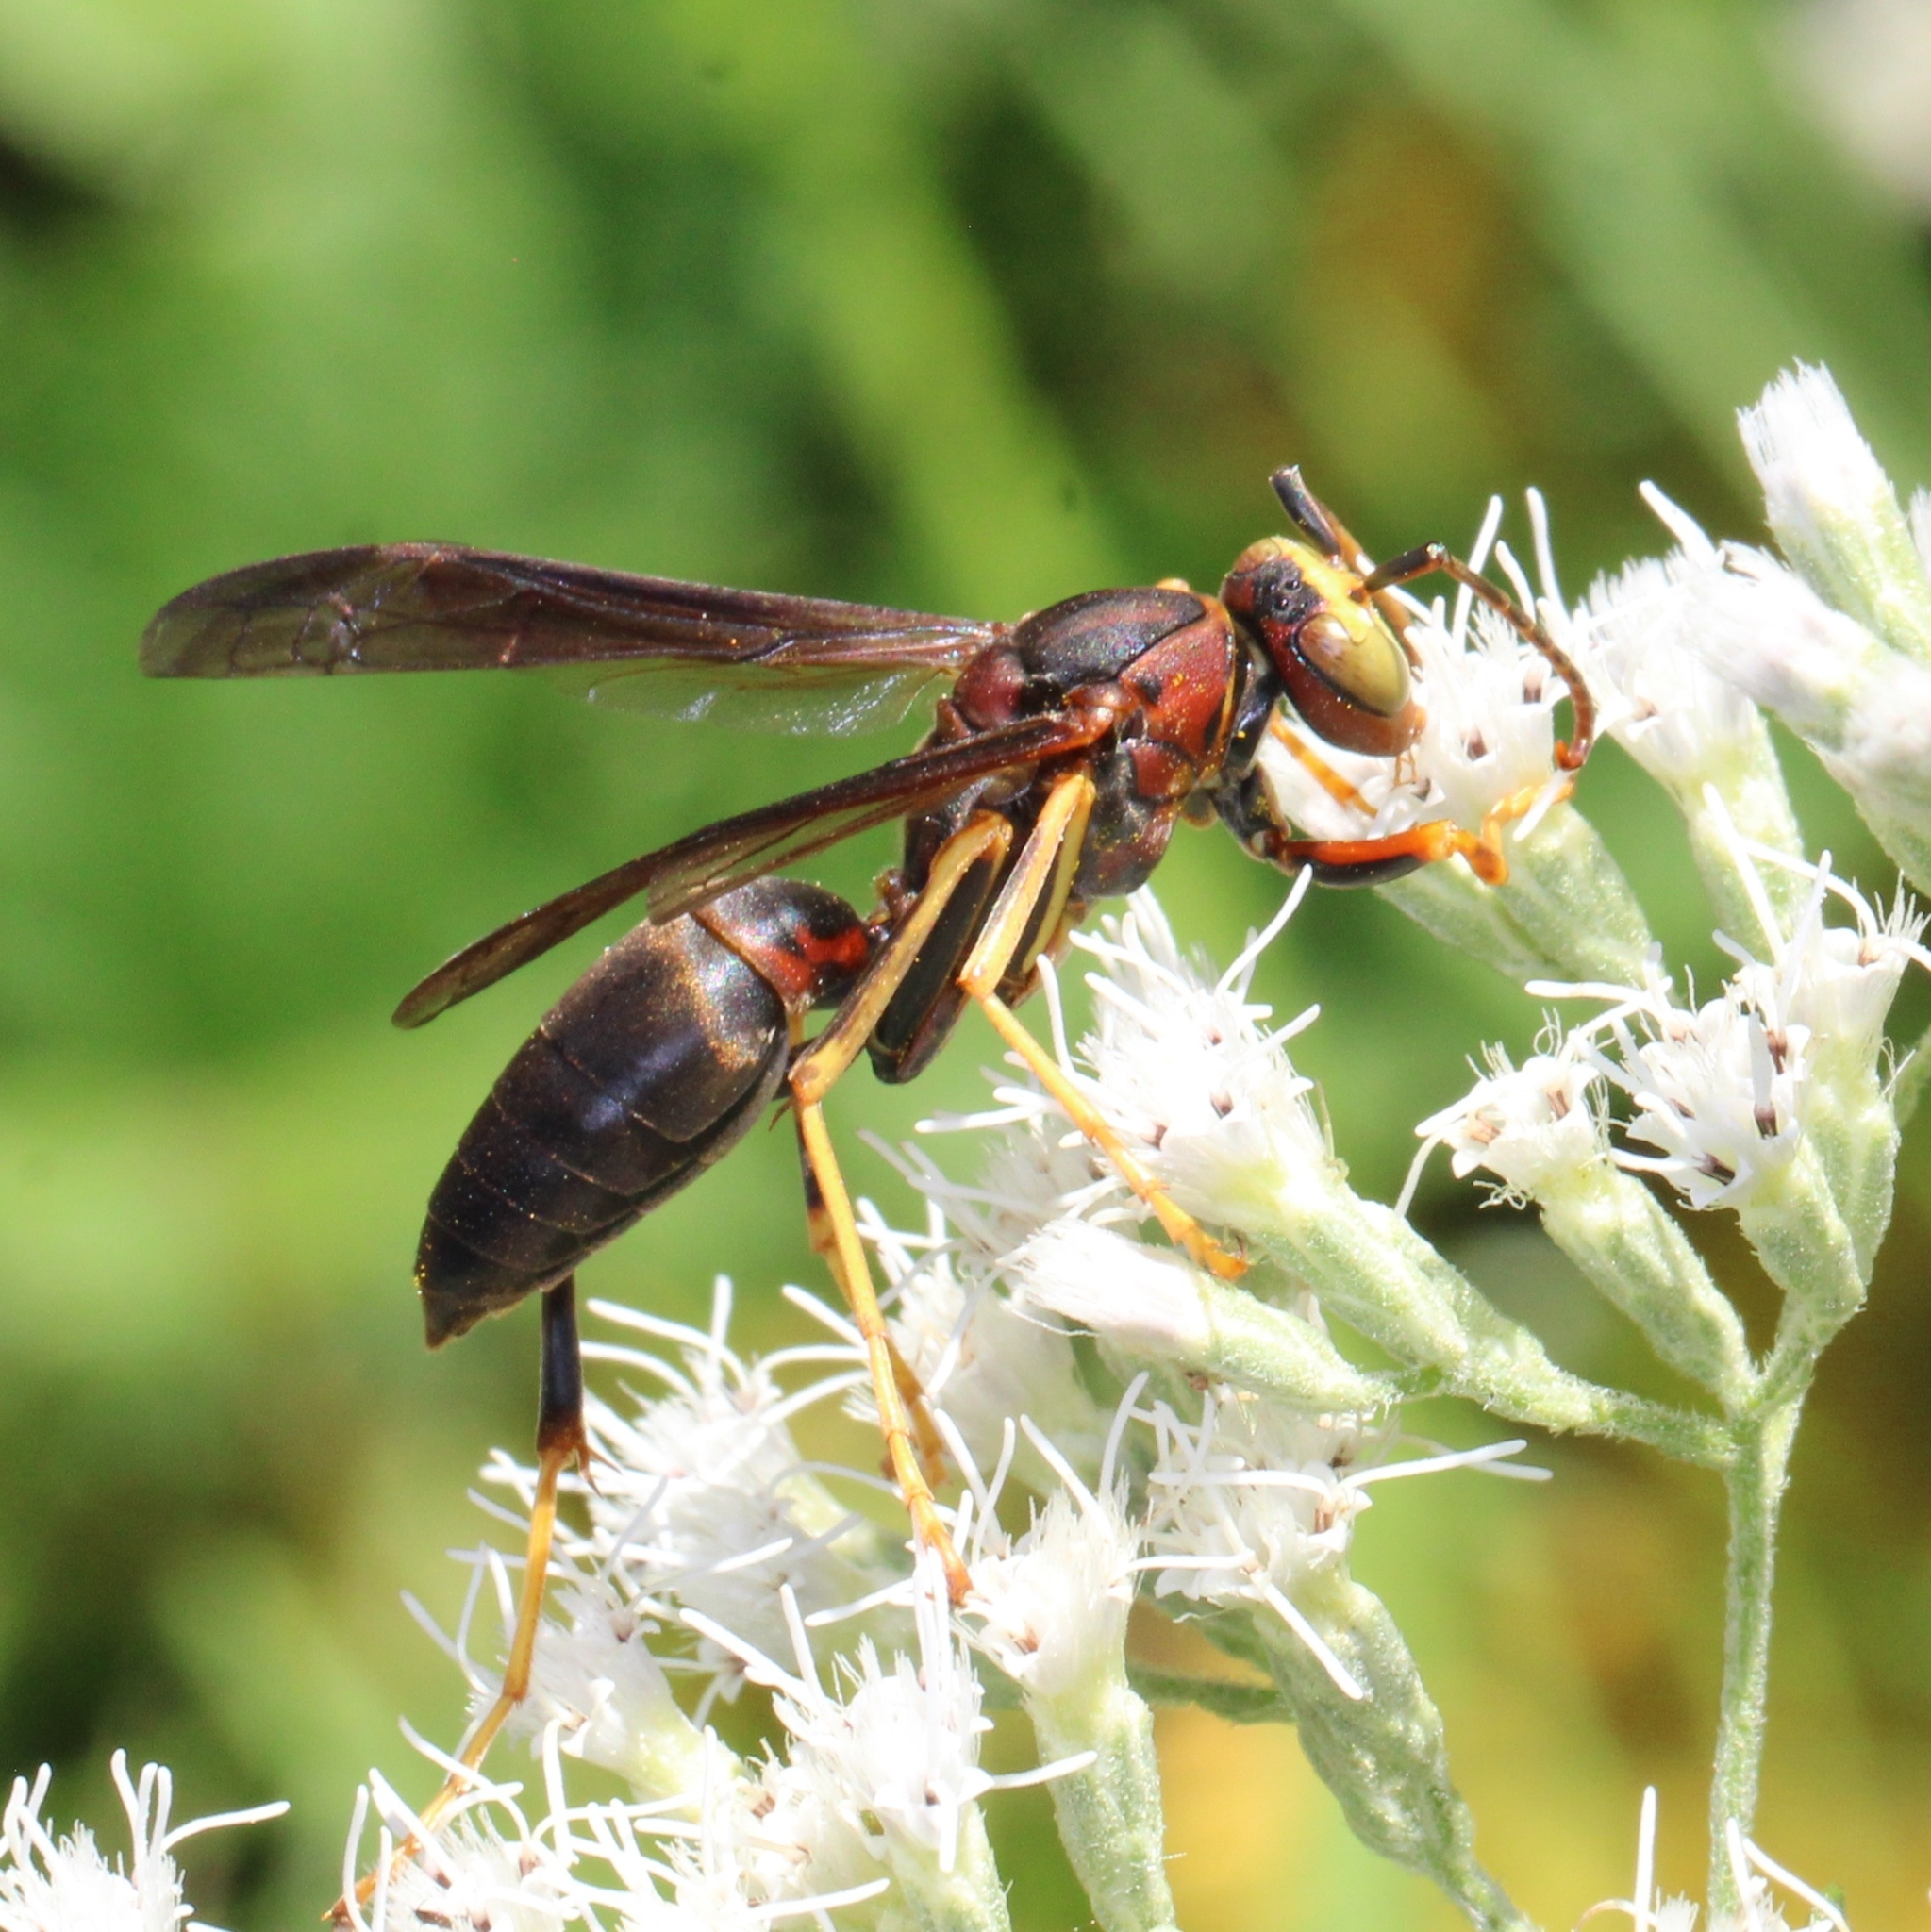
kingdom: Animalia
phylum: Arthropoda
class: Insecta
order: Hymenoptera
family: Eumenidae
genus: Polistes
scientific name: Polistes metricus
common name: Metric paper wasp
